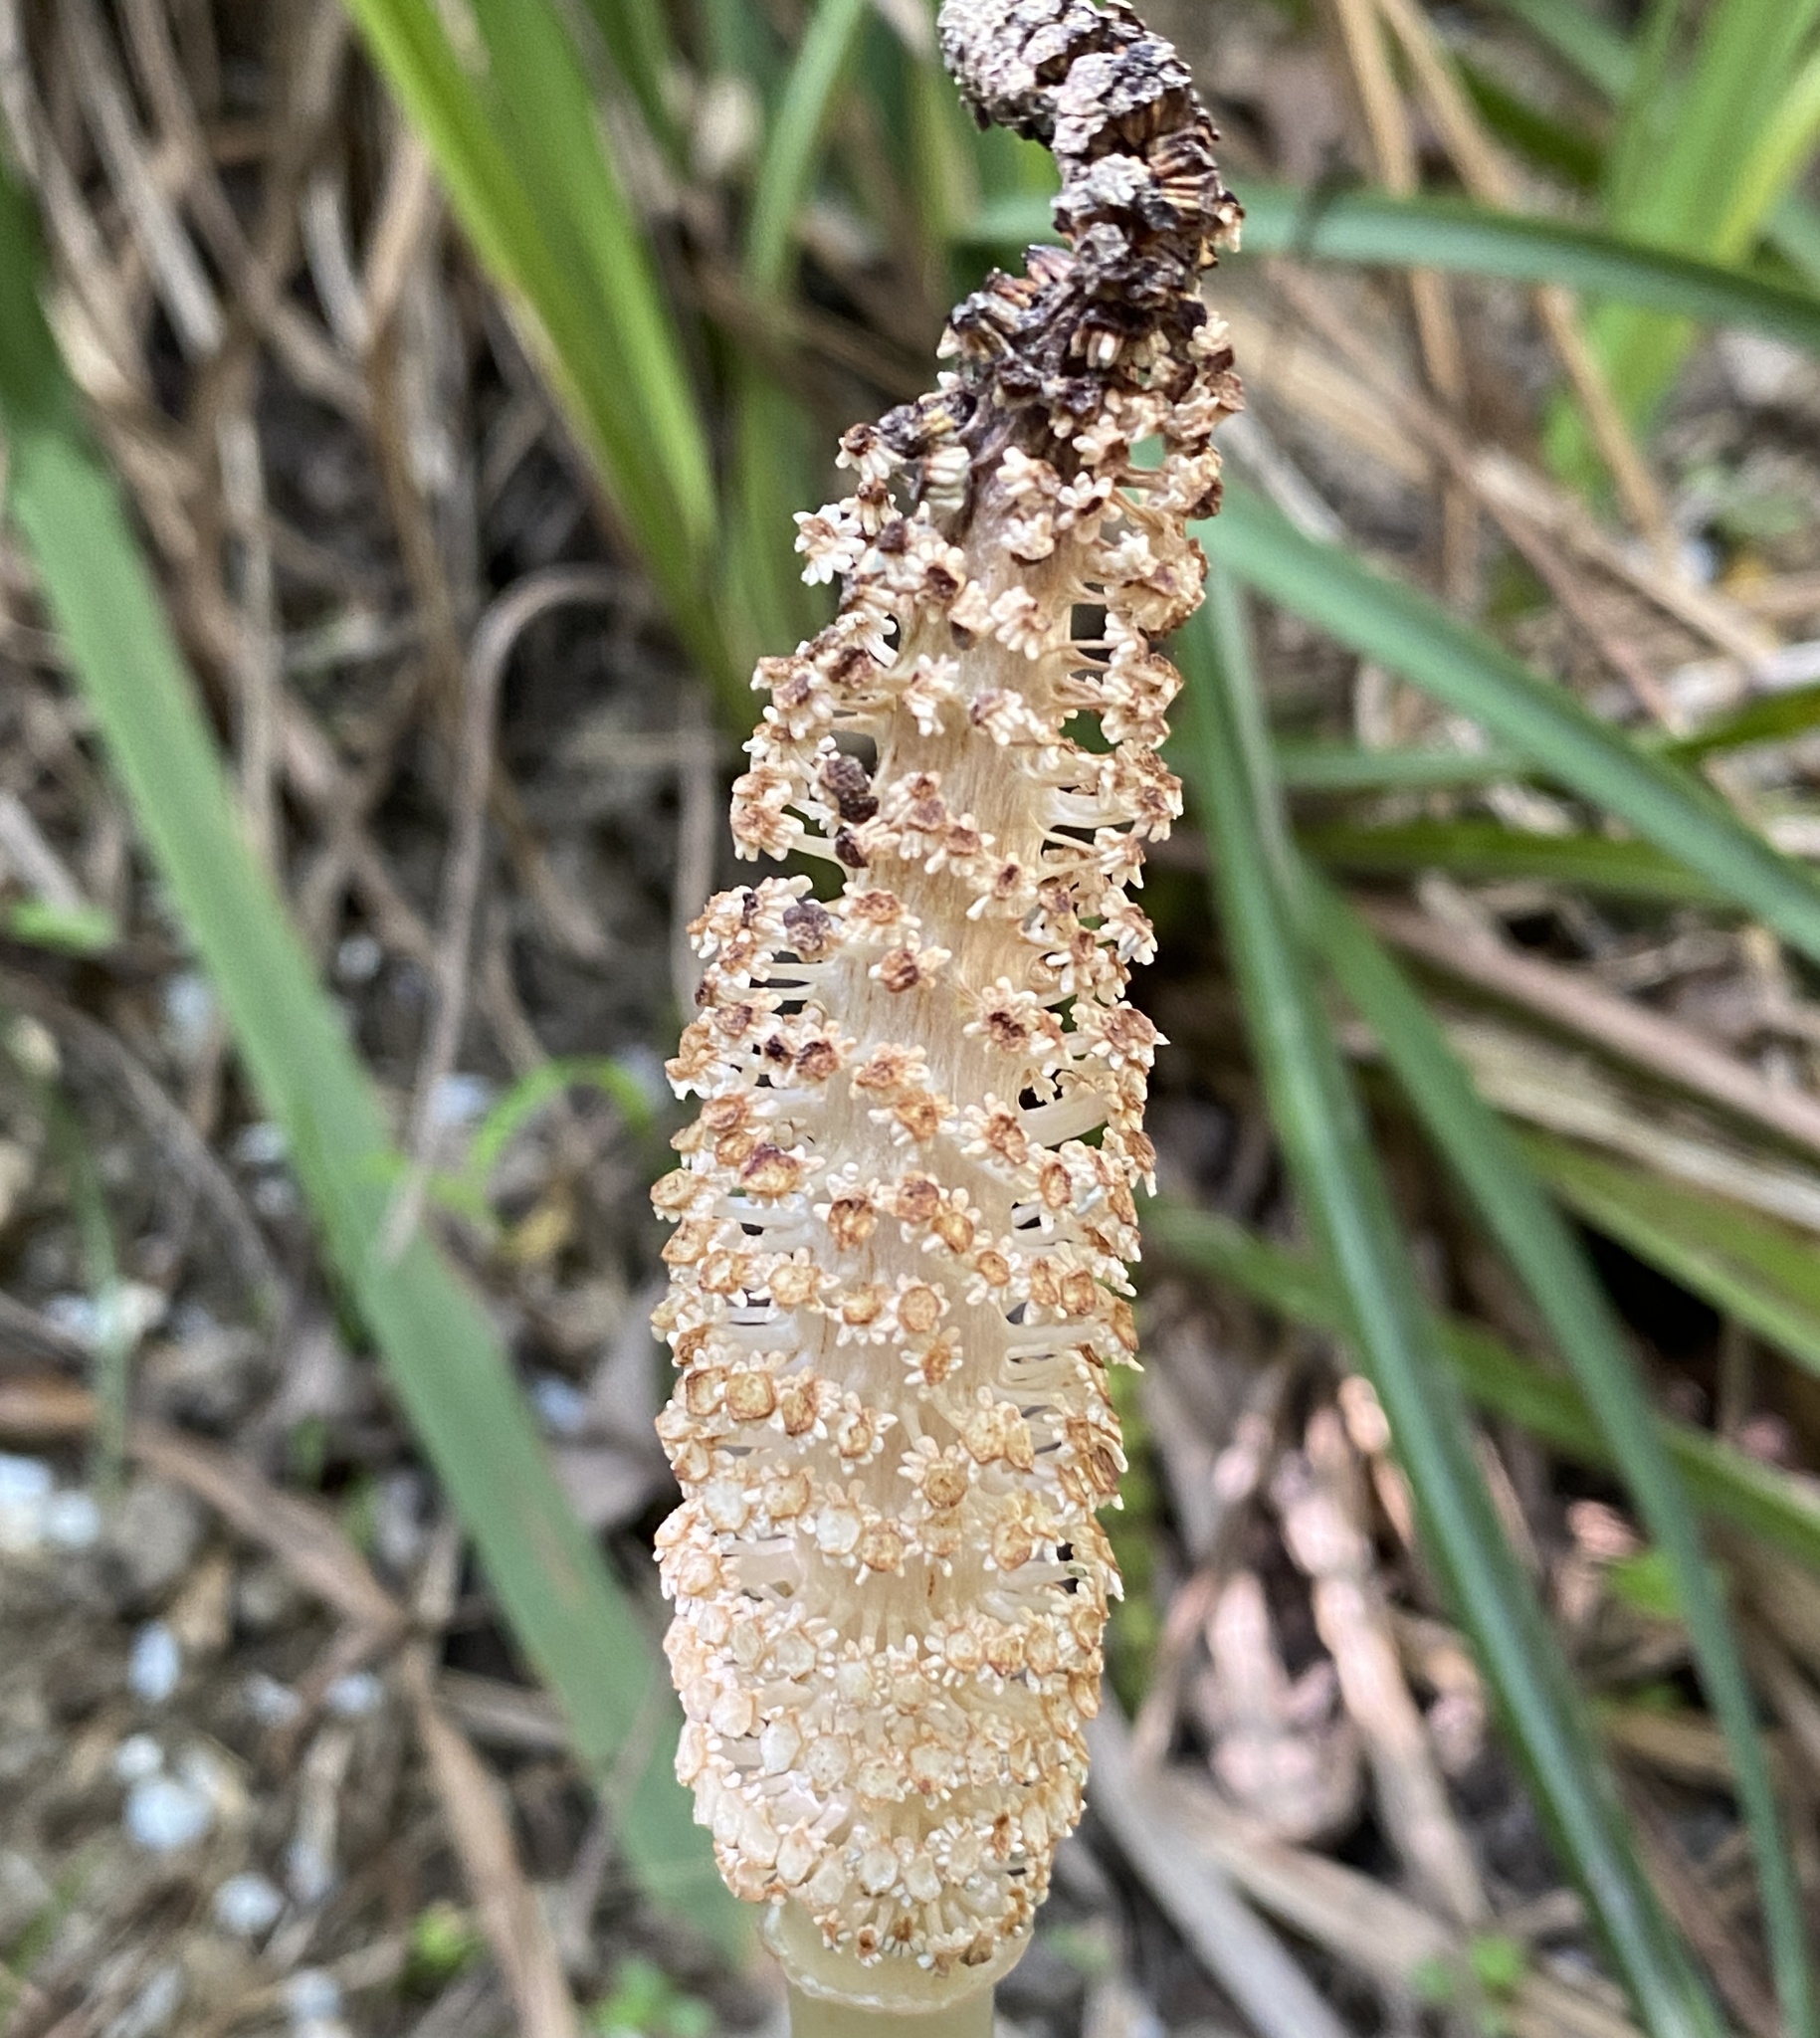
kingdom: Plantae
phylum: Tracheophyta
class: Polypodiopsida
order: Equisetales
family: Equisetaceae
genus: Equisetum
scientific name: Equisetum telmateia
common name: Great horsetail
